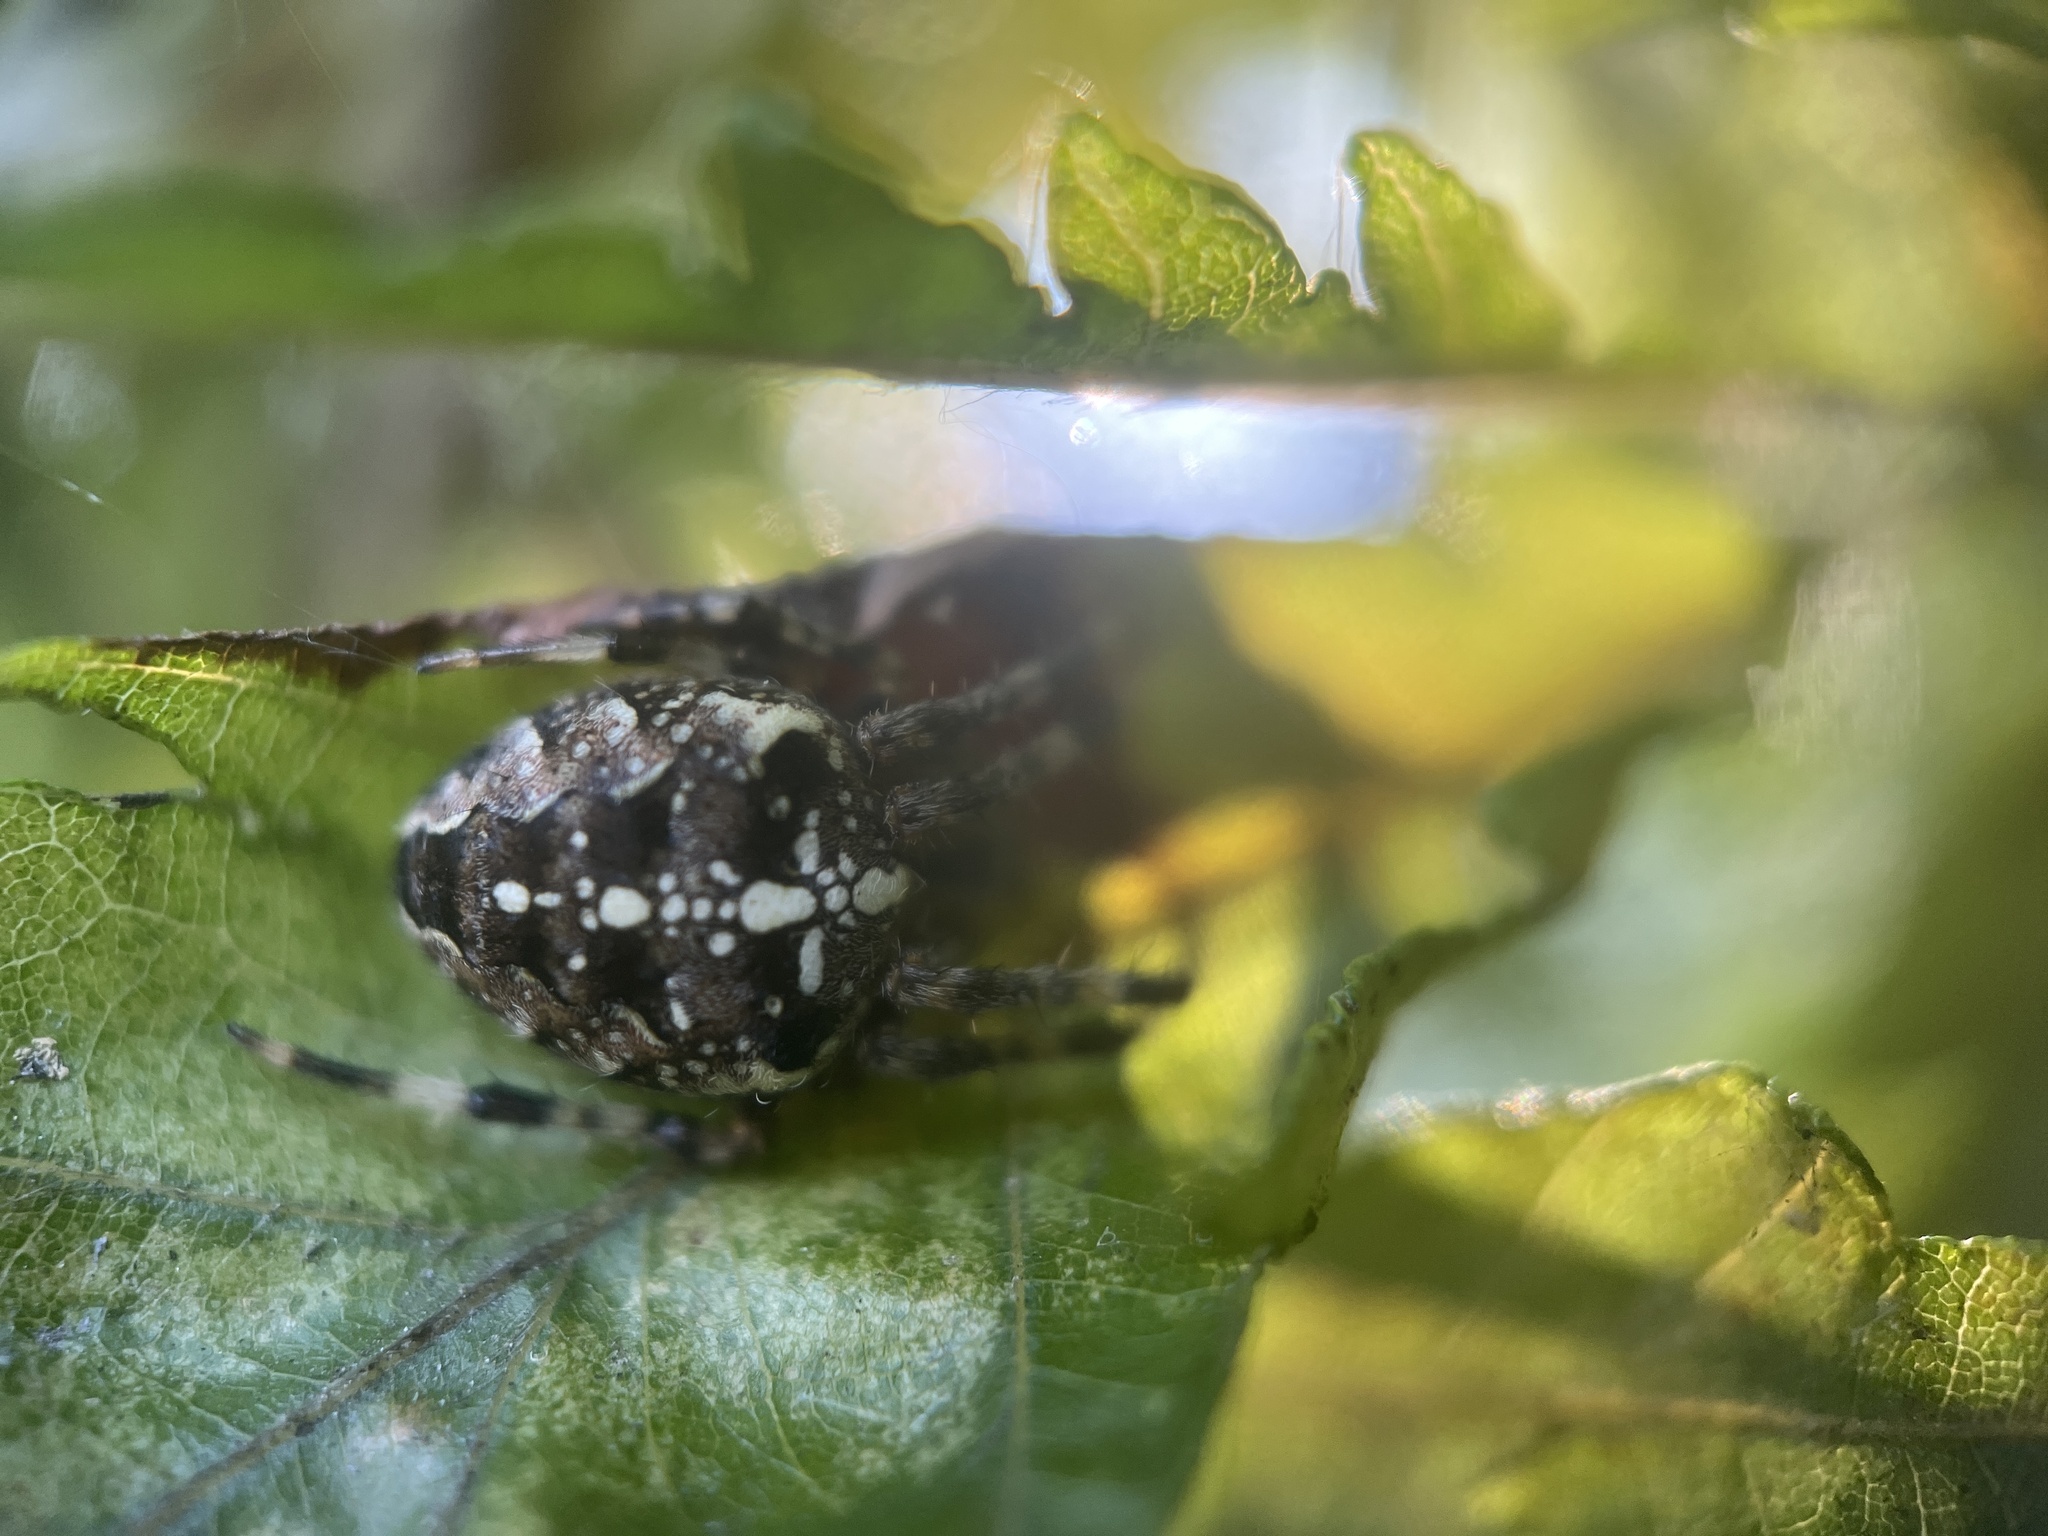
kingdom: Animalia
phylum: Arthropoda
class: Arachnida
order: Araneae
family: Araneidae
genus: Araneus
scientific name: Araneus diadematus
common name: Cross orbweaver
